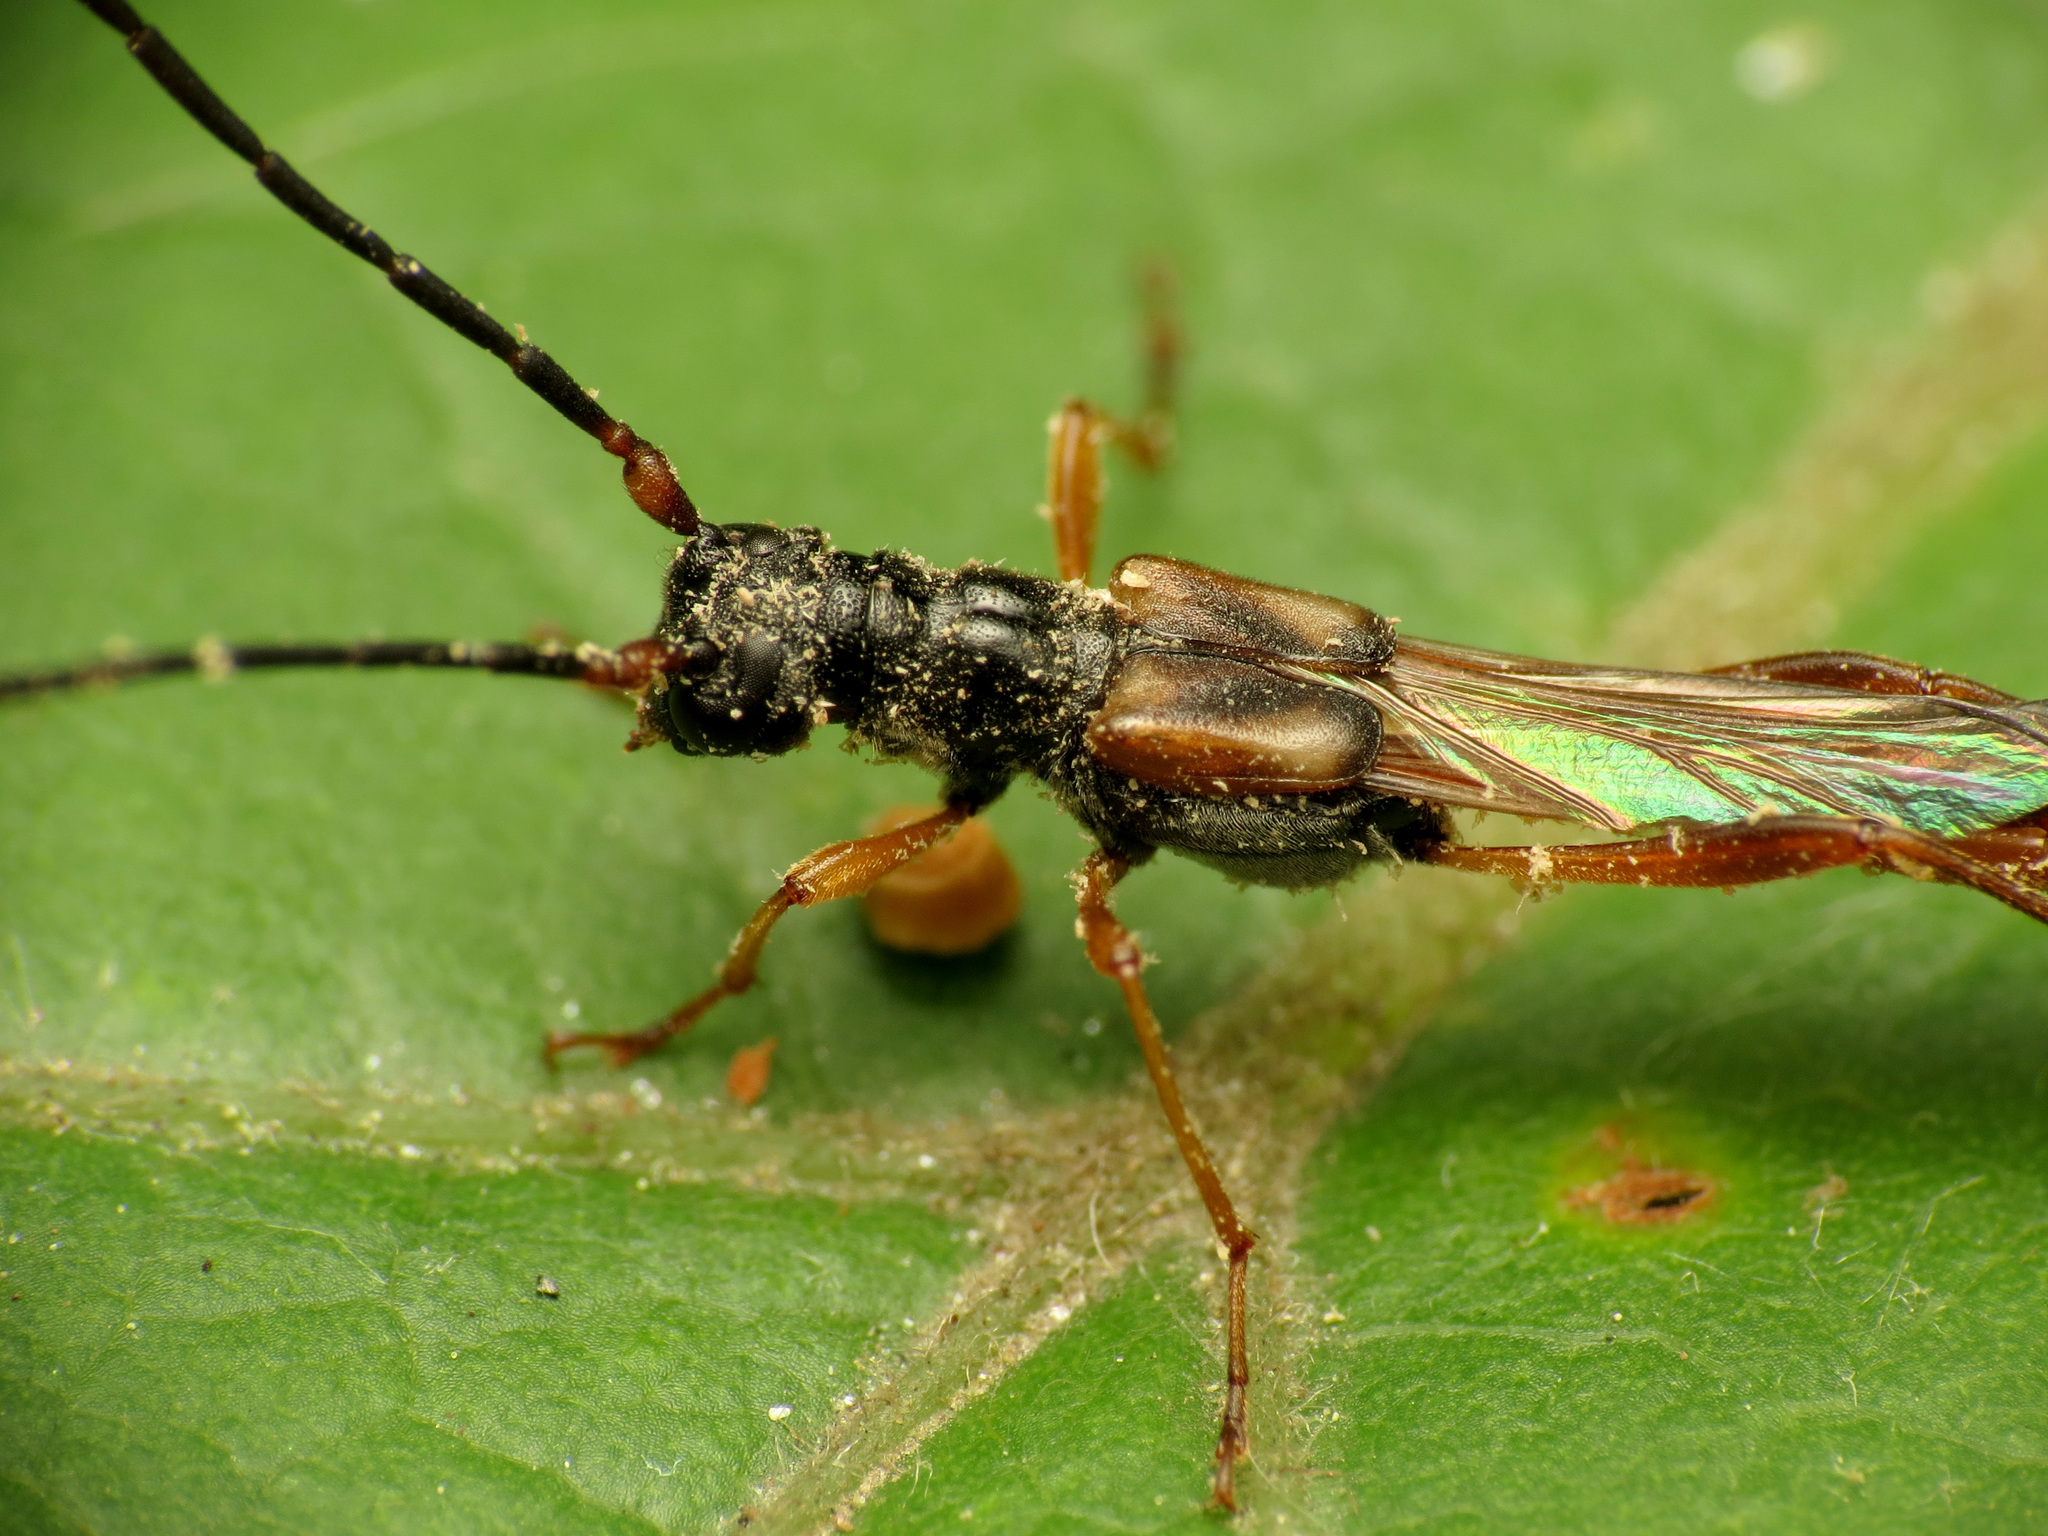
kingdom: Animalia
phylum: Arthropoda
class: Insecta
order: Coleoptera
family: Cerambycidae
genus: Necydalis
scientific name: Necydalis mellita
